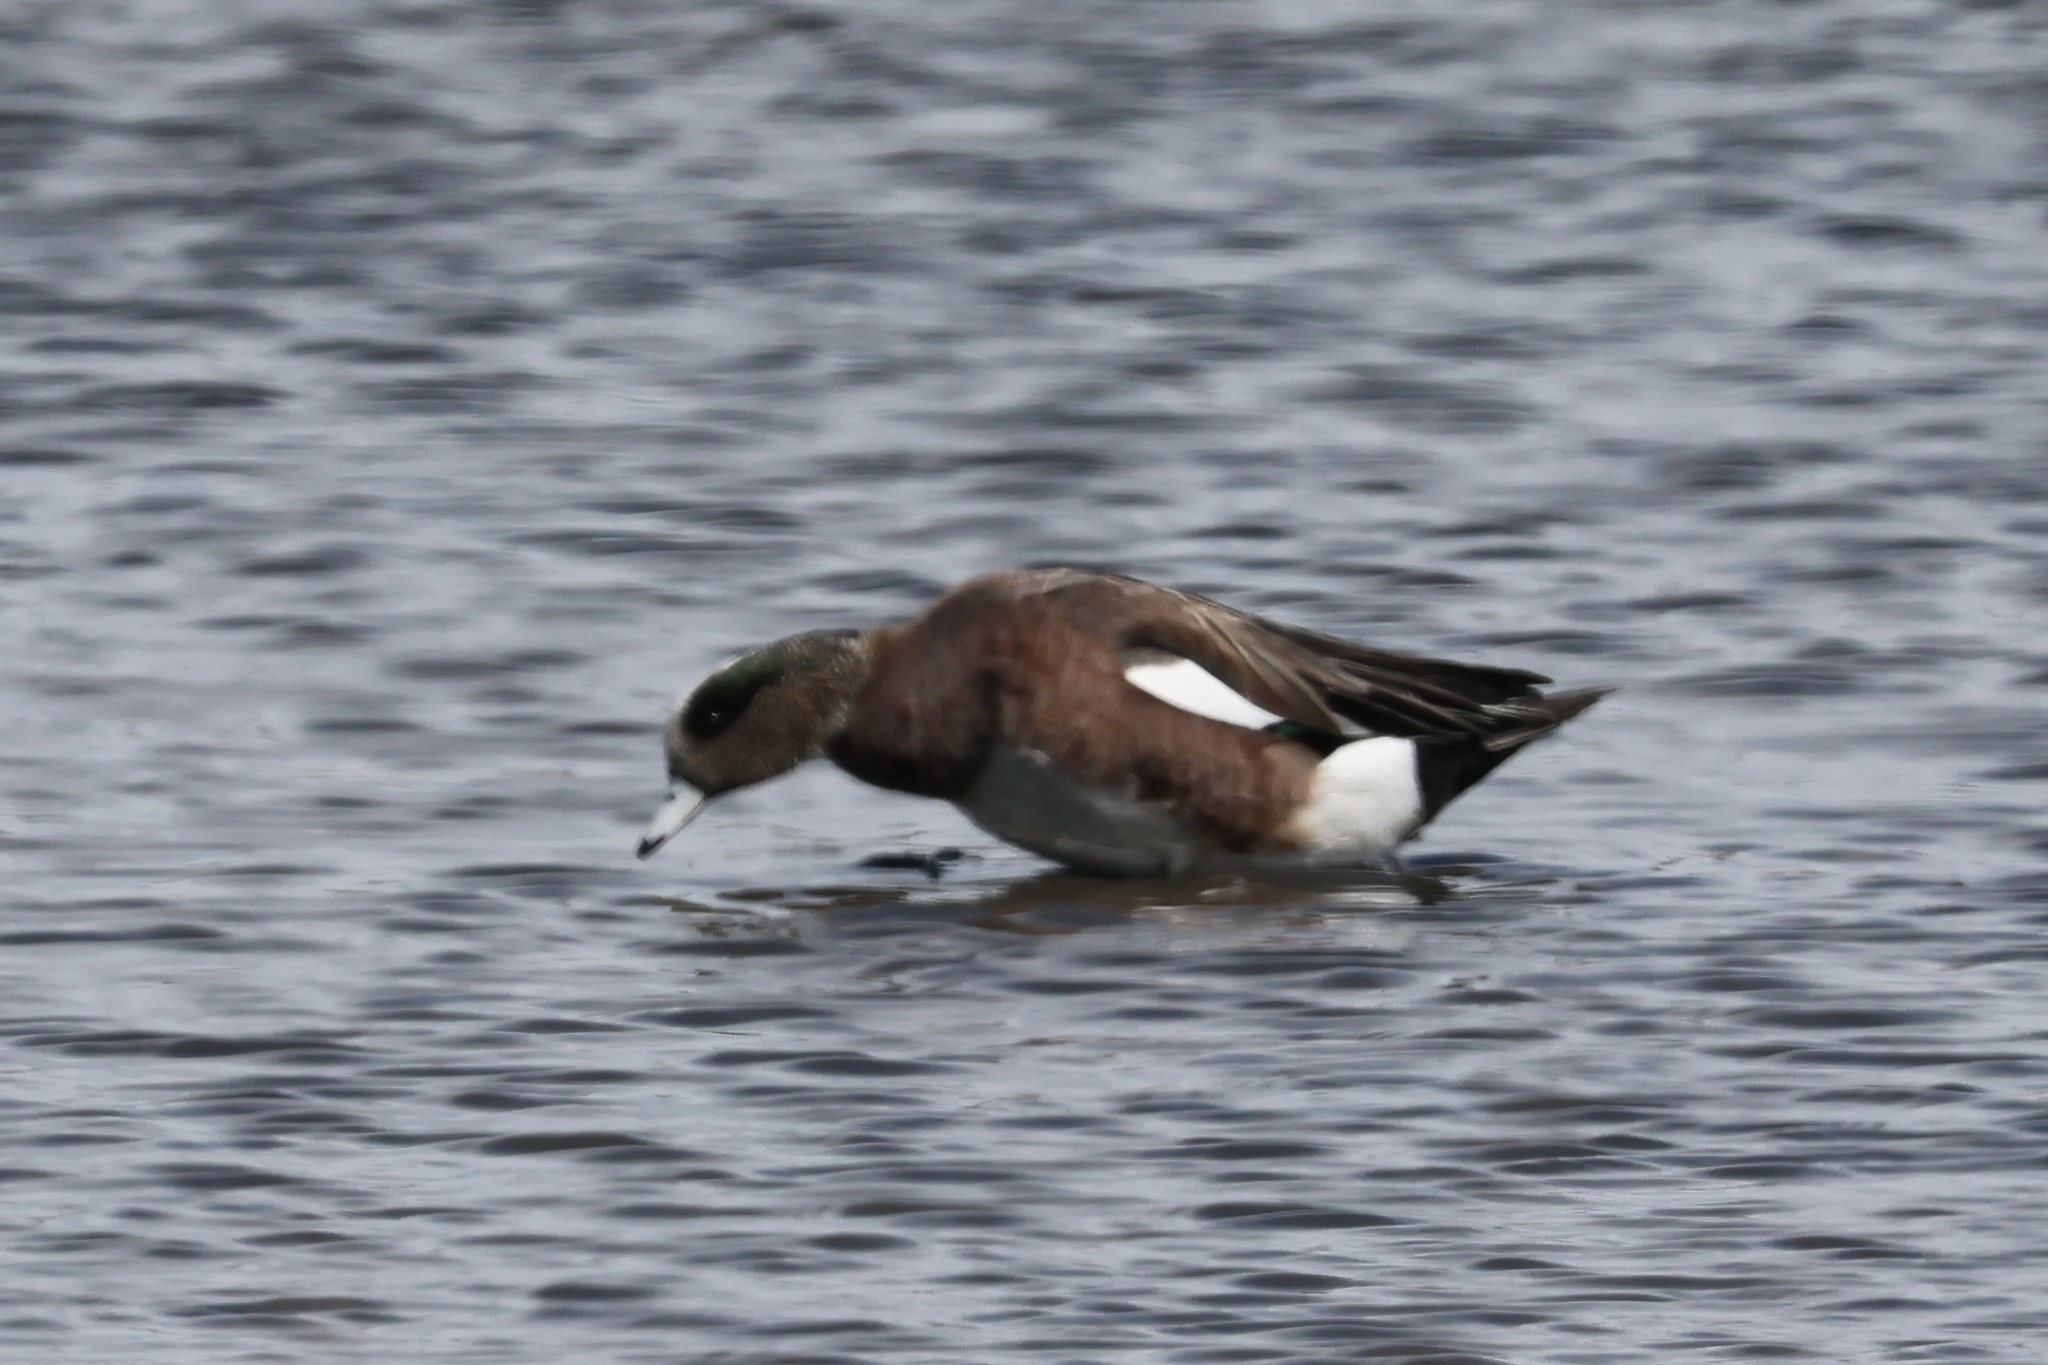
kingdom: Animalia
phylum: Chordata
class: Aves
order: Anseriformes
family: Anatidae
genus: Mareca
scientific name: Mareca americana
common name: American wigeon
